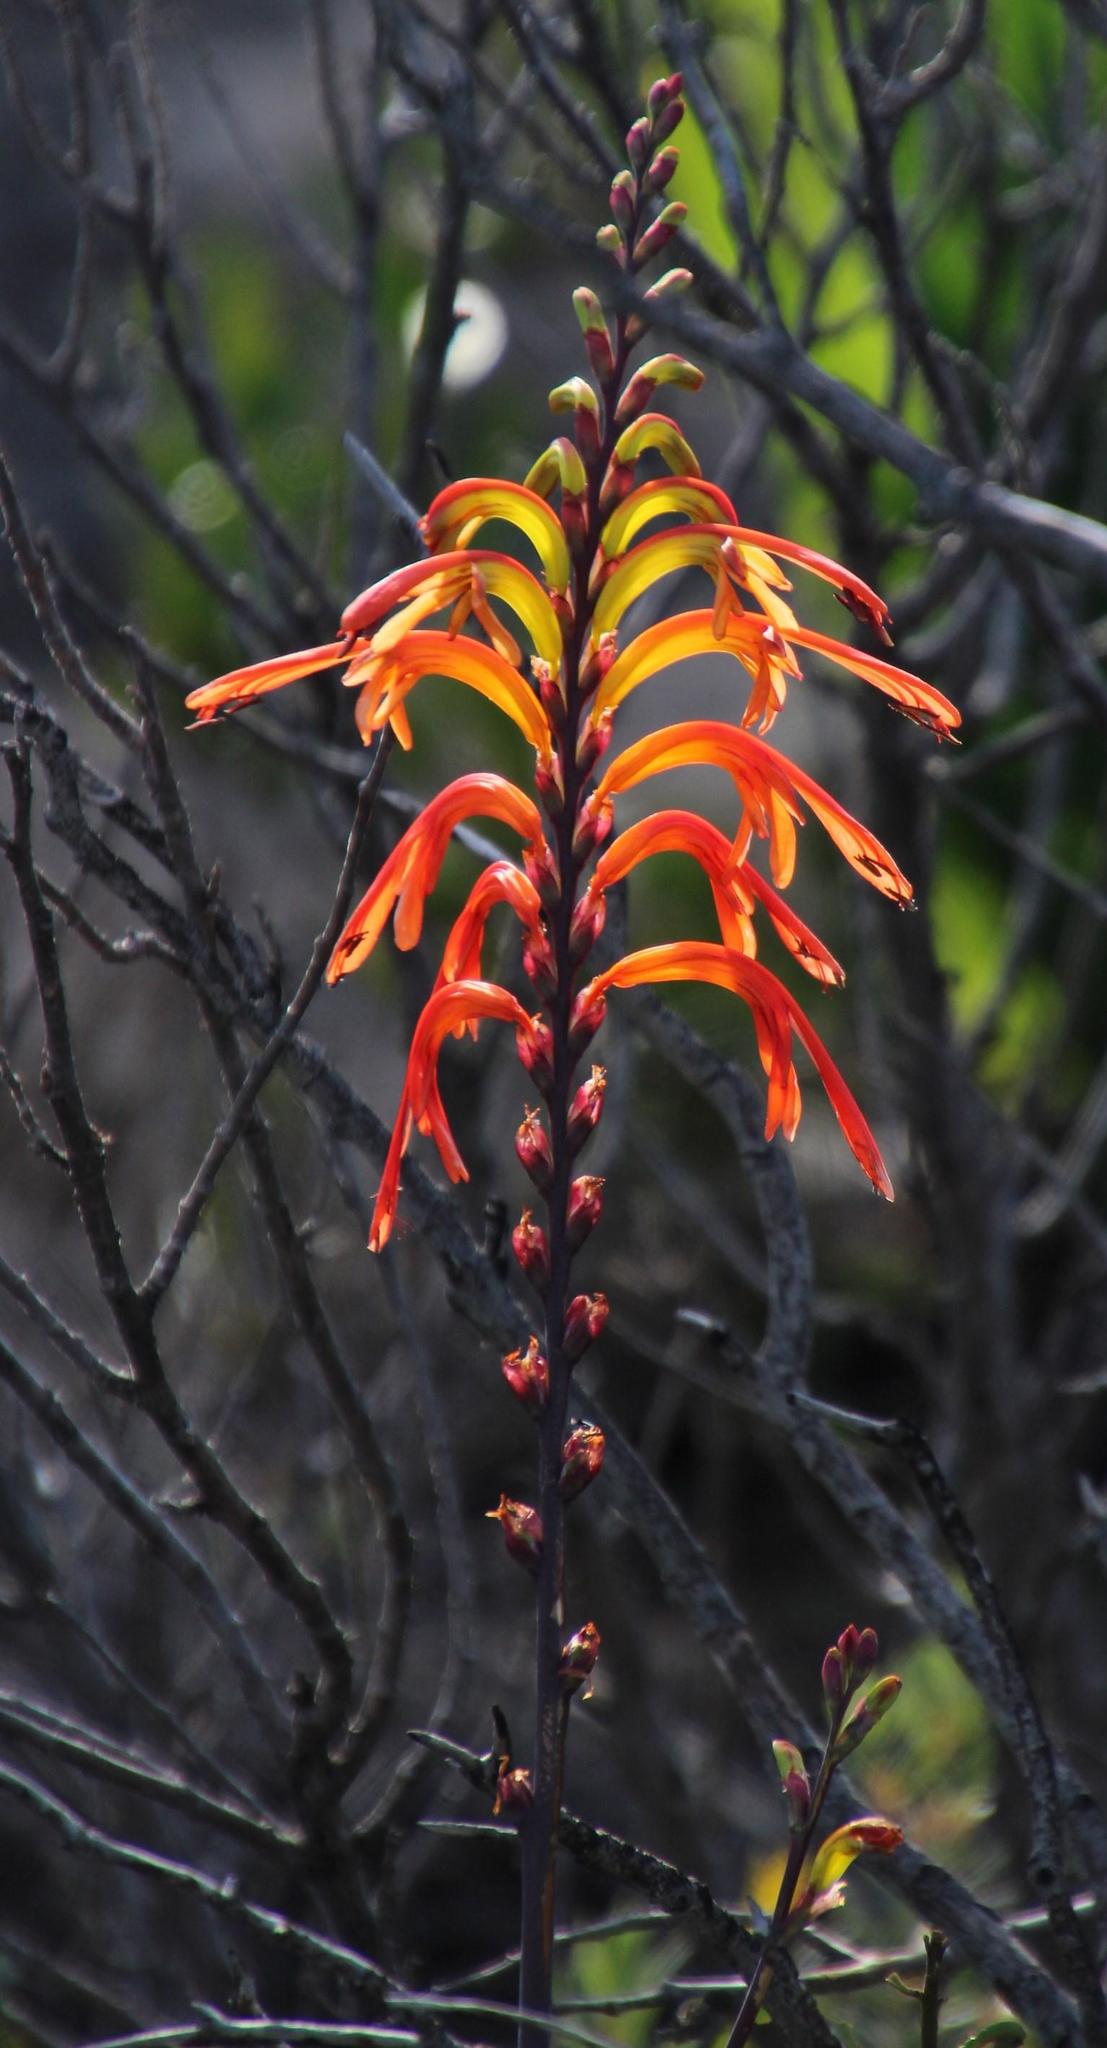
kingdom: Plantae
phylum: Tracheophyta
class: Liliopsida
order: Asparagales
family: Iridaceae
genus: Chasmanthe
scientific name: Chasmanthe floribunda
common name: African cornflag
